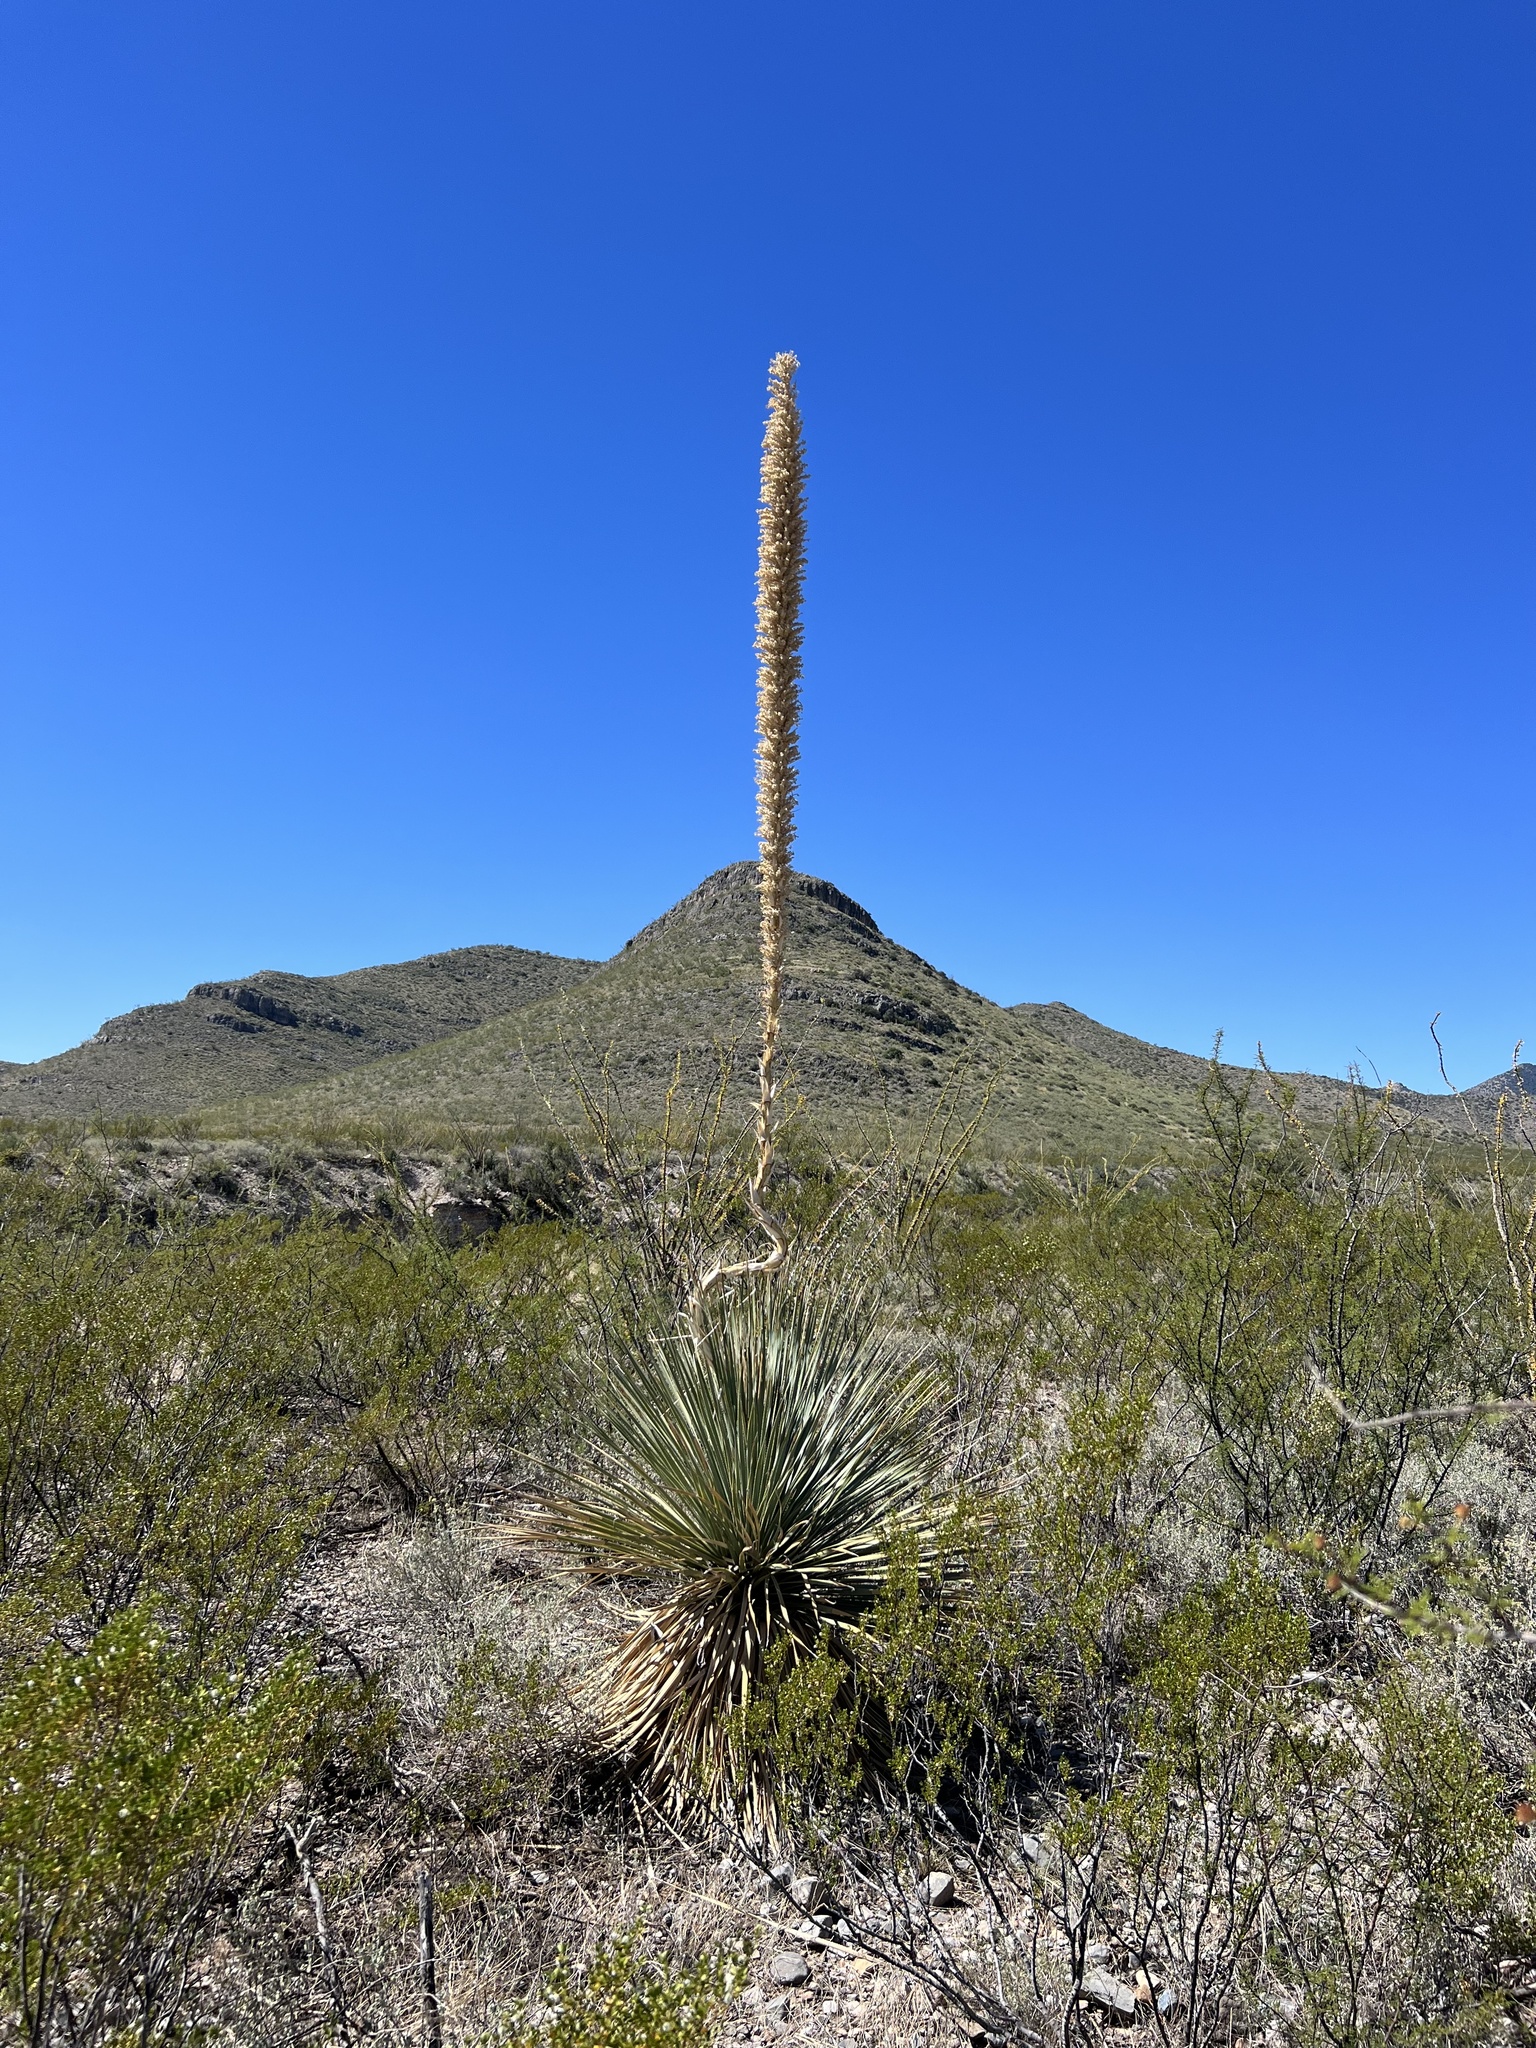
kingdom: Plantae
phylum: Tracheophyta
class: Liliopsida
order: Asparagales
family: Asparagaceae
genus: Dasylirion
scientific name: Dasylirion wheeleri
